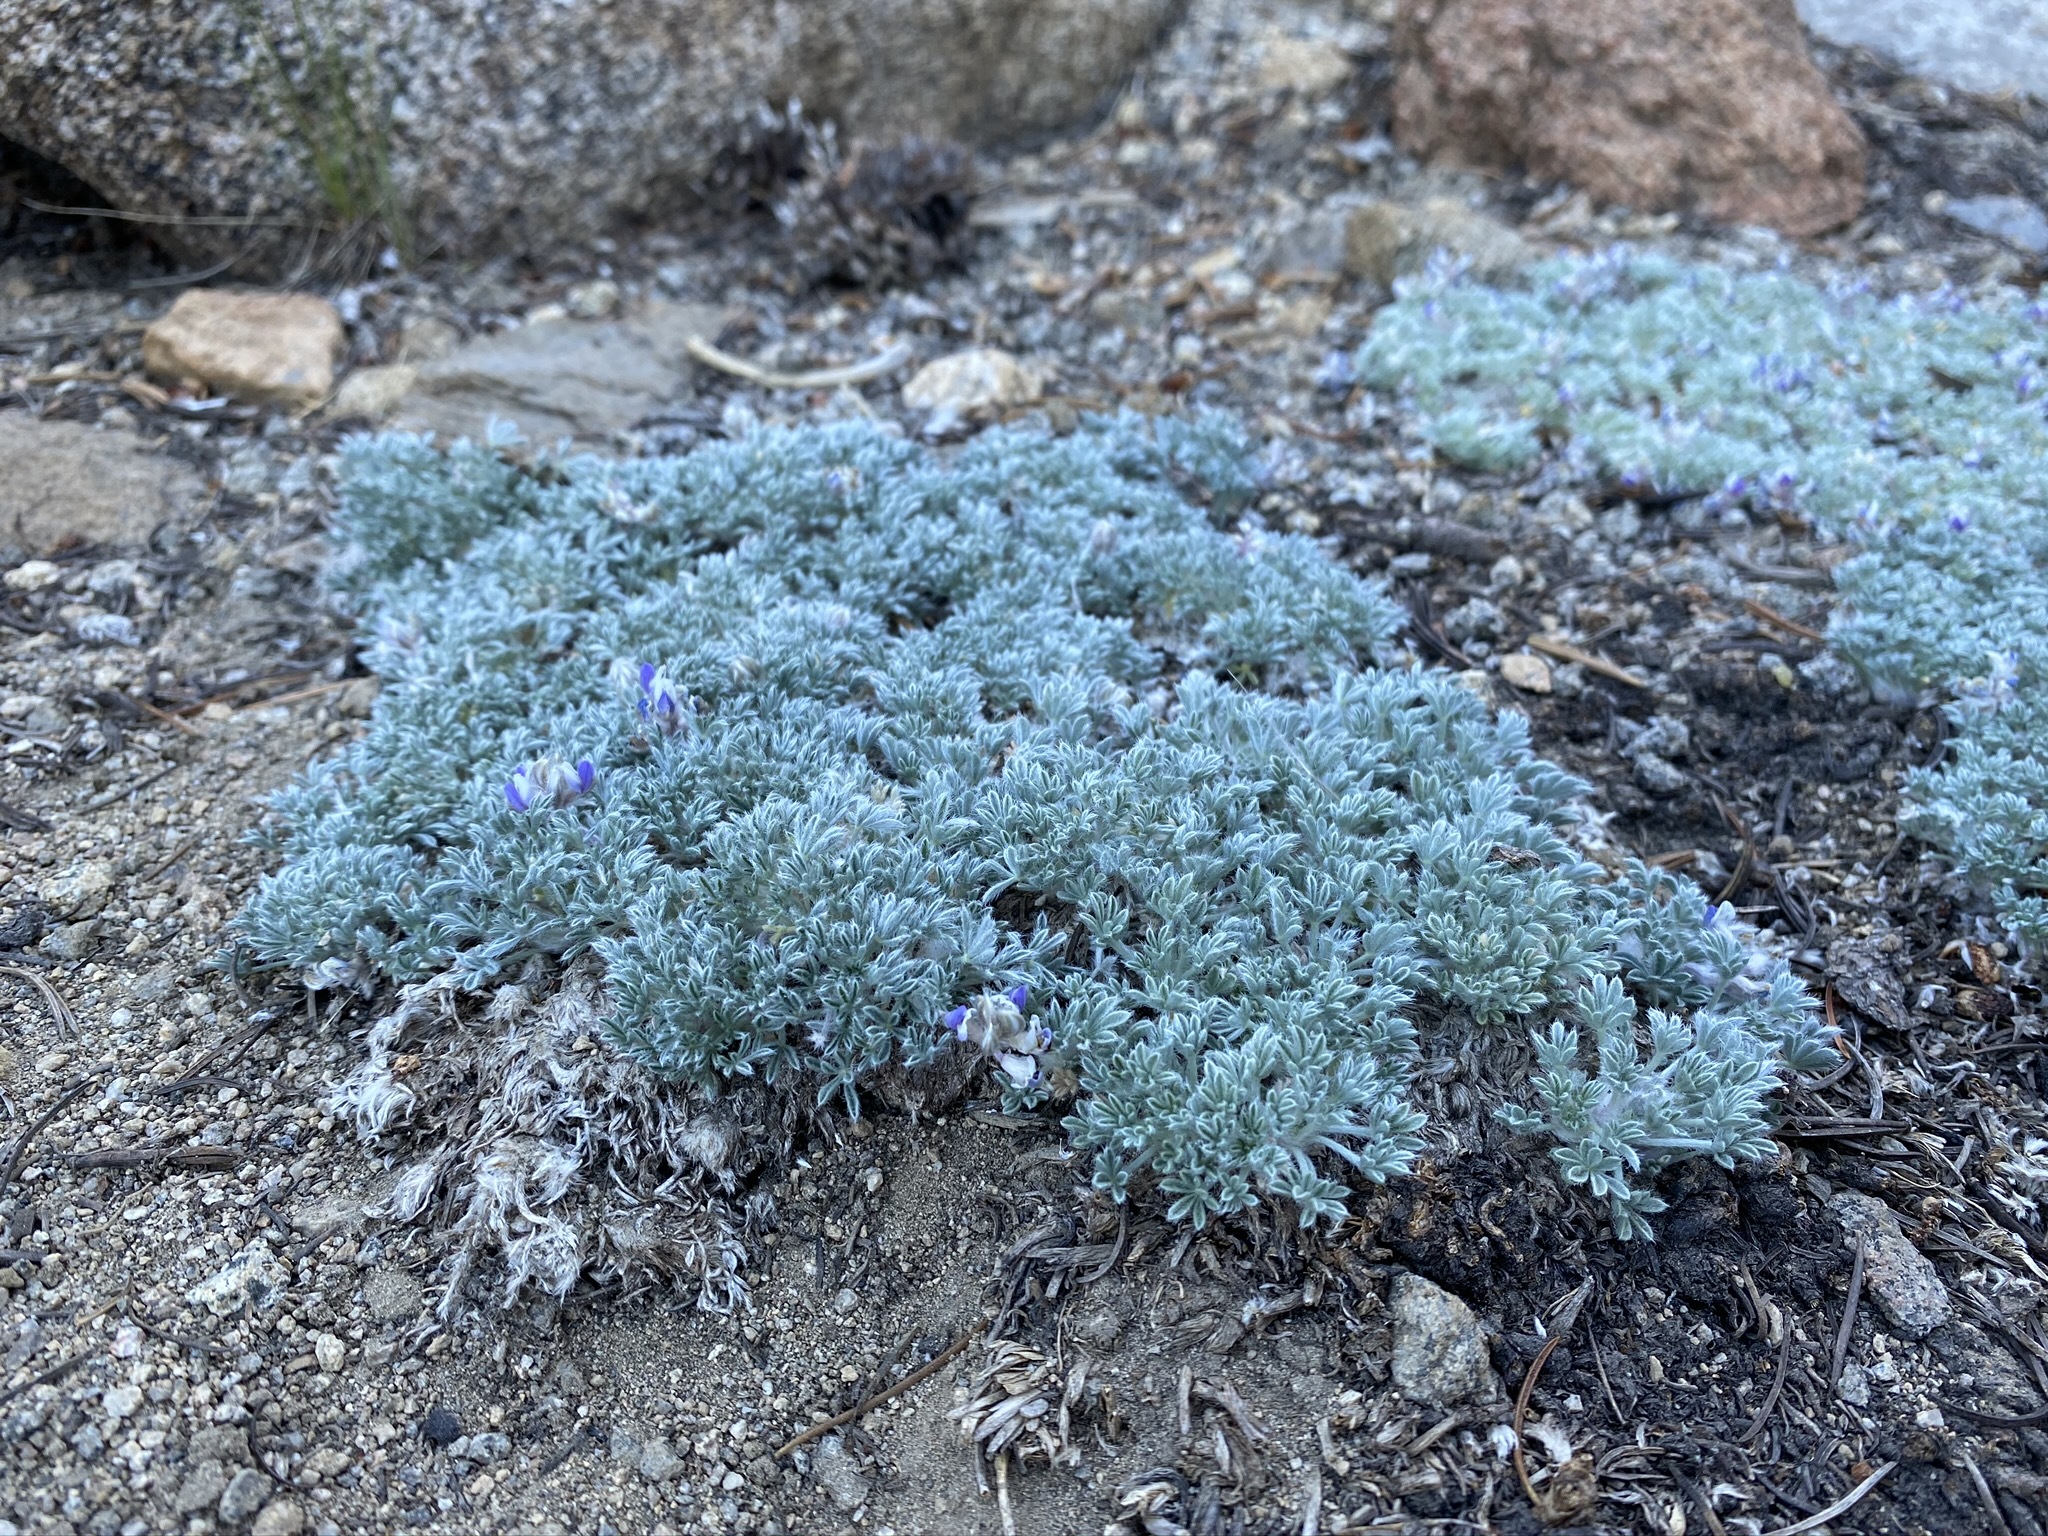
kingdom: Plantae
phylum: Tracheophyta
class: Magnoliopsida
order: Fabales
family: Fabaceae
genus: Lupinus
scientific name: Lupinus breweri
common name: Brewer's lupine
